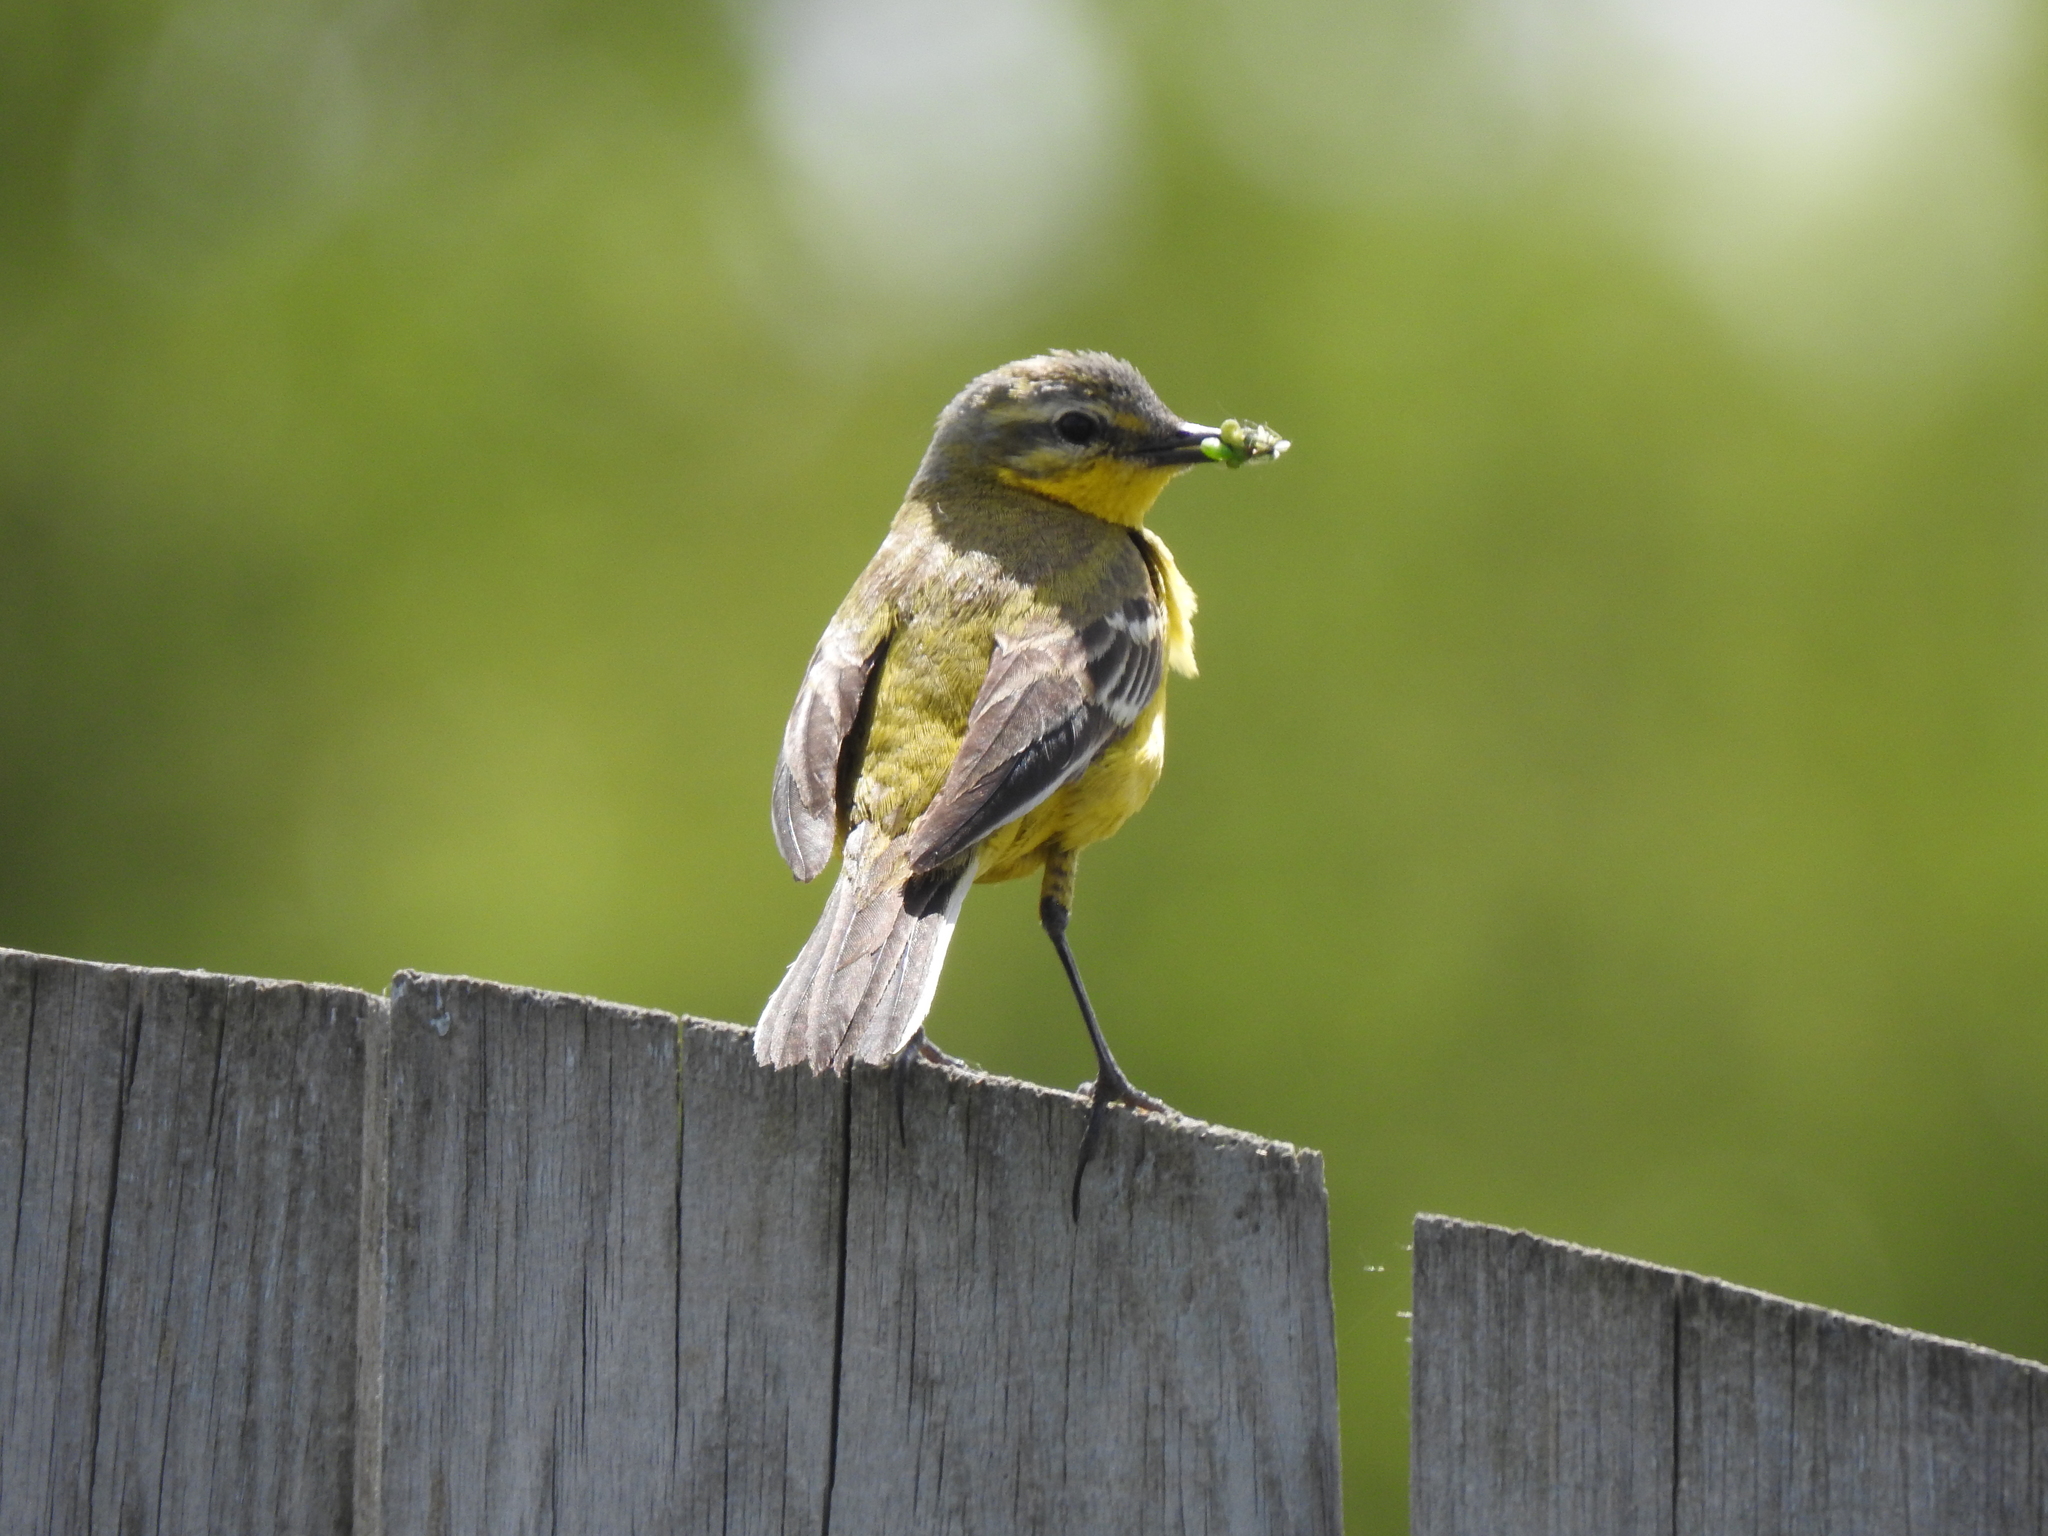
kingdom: Animalia
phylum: Chordata
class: Aves
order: Passeriformes
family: Motacillidae
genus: Motacilla
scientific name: Motacilla flava
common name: Western yellow wagtail
